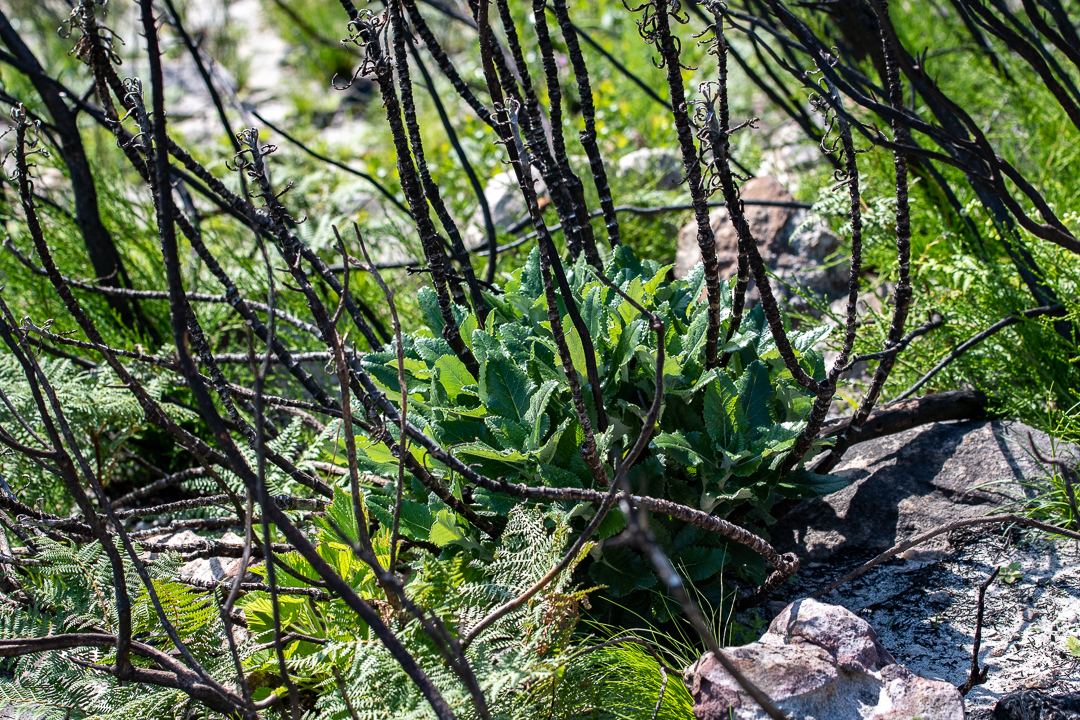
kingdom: Plantae
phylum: Tracheophyta
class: Magnoliopsida
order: Apiales
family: Apiaceae
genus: Hermas
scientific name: Hermas villosa
